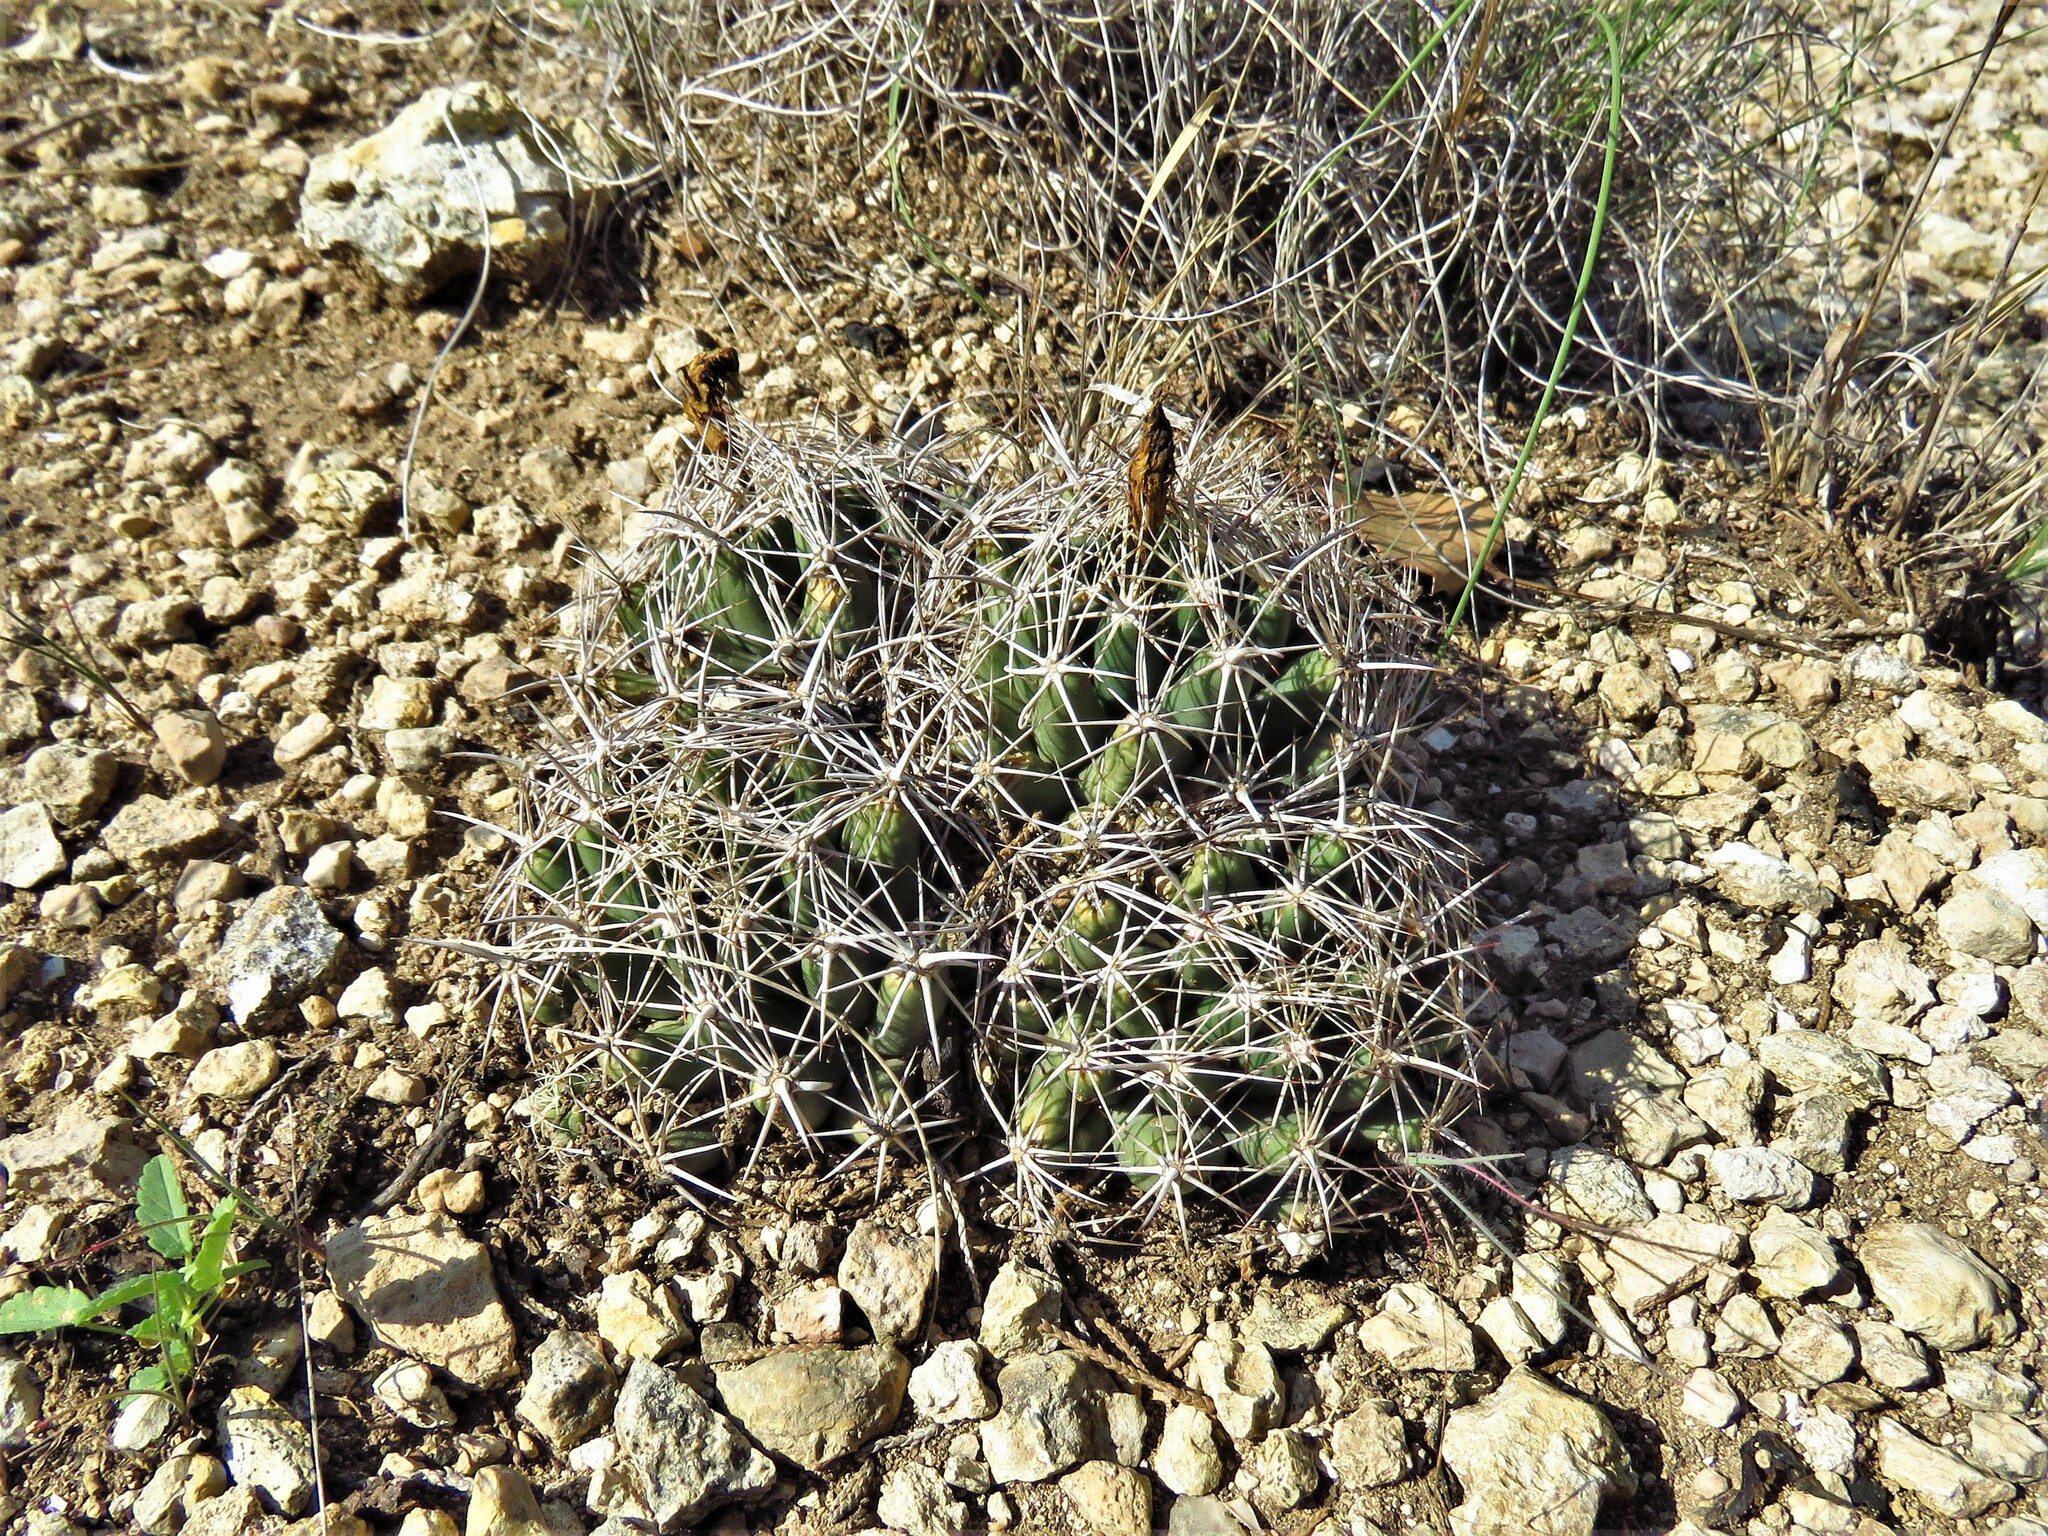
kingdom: Plantae
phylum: Tracheophyta
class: Magnoliopsida
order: Caryophyllales
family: Cactaceae
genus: Coryphantha
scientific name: Coryphantha sulcata
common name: Finger cactus
